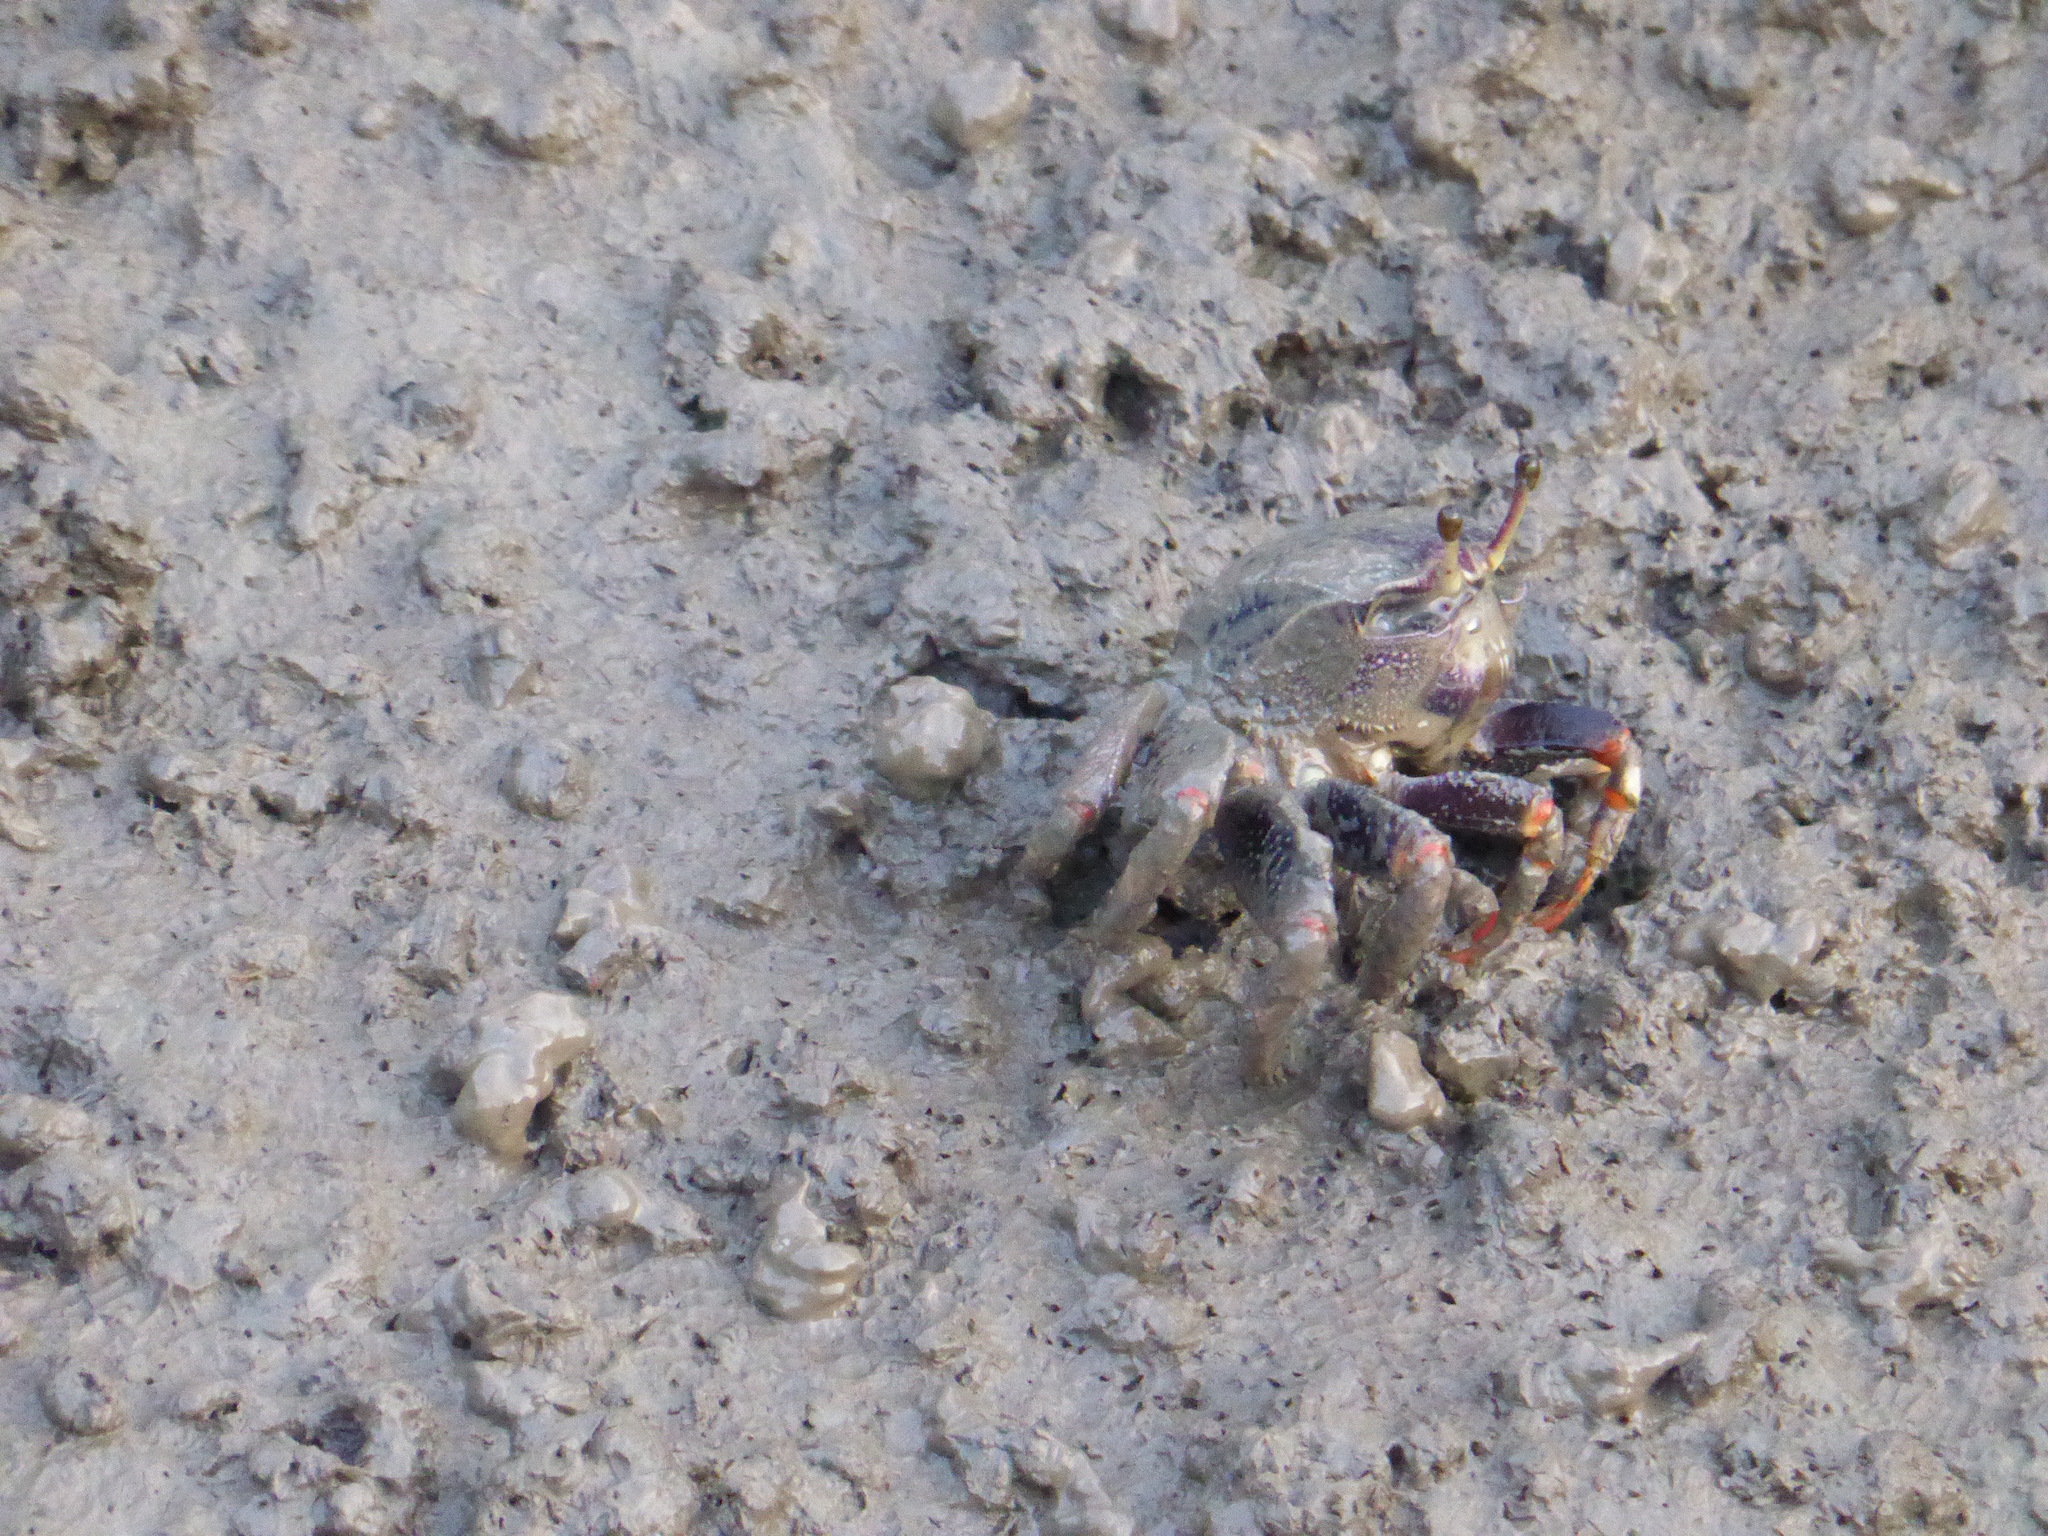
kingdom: Animalia
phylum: Arthropoda
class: Malacostraca
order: Decapoda
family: Ocypodidae
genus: Afruca
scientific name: Afruca tangeri
